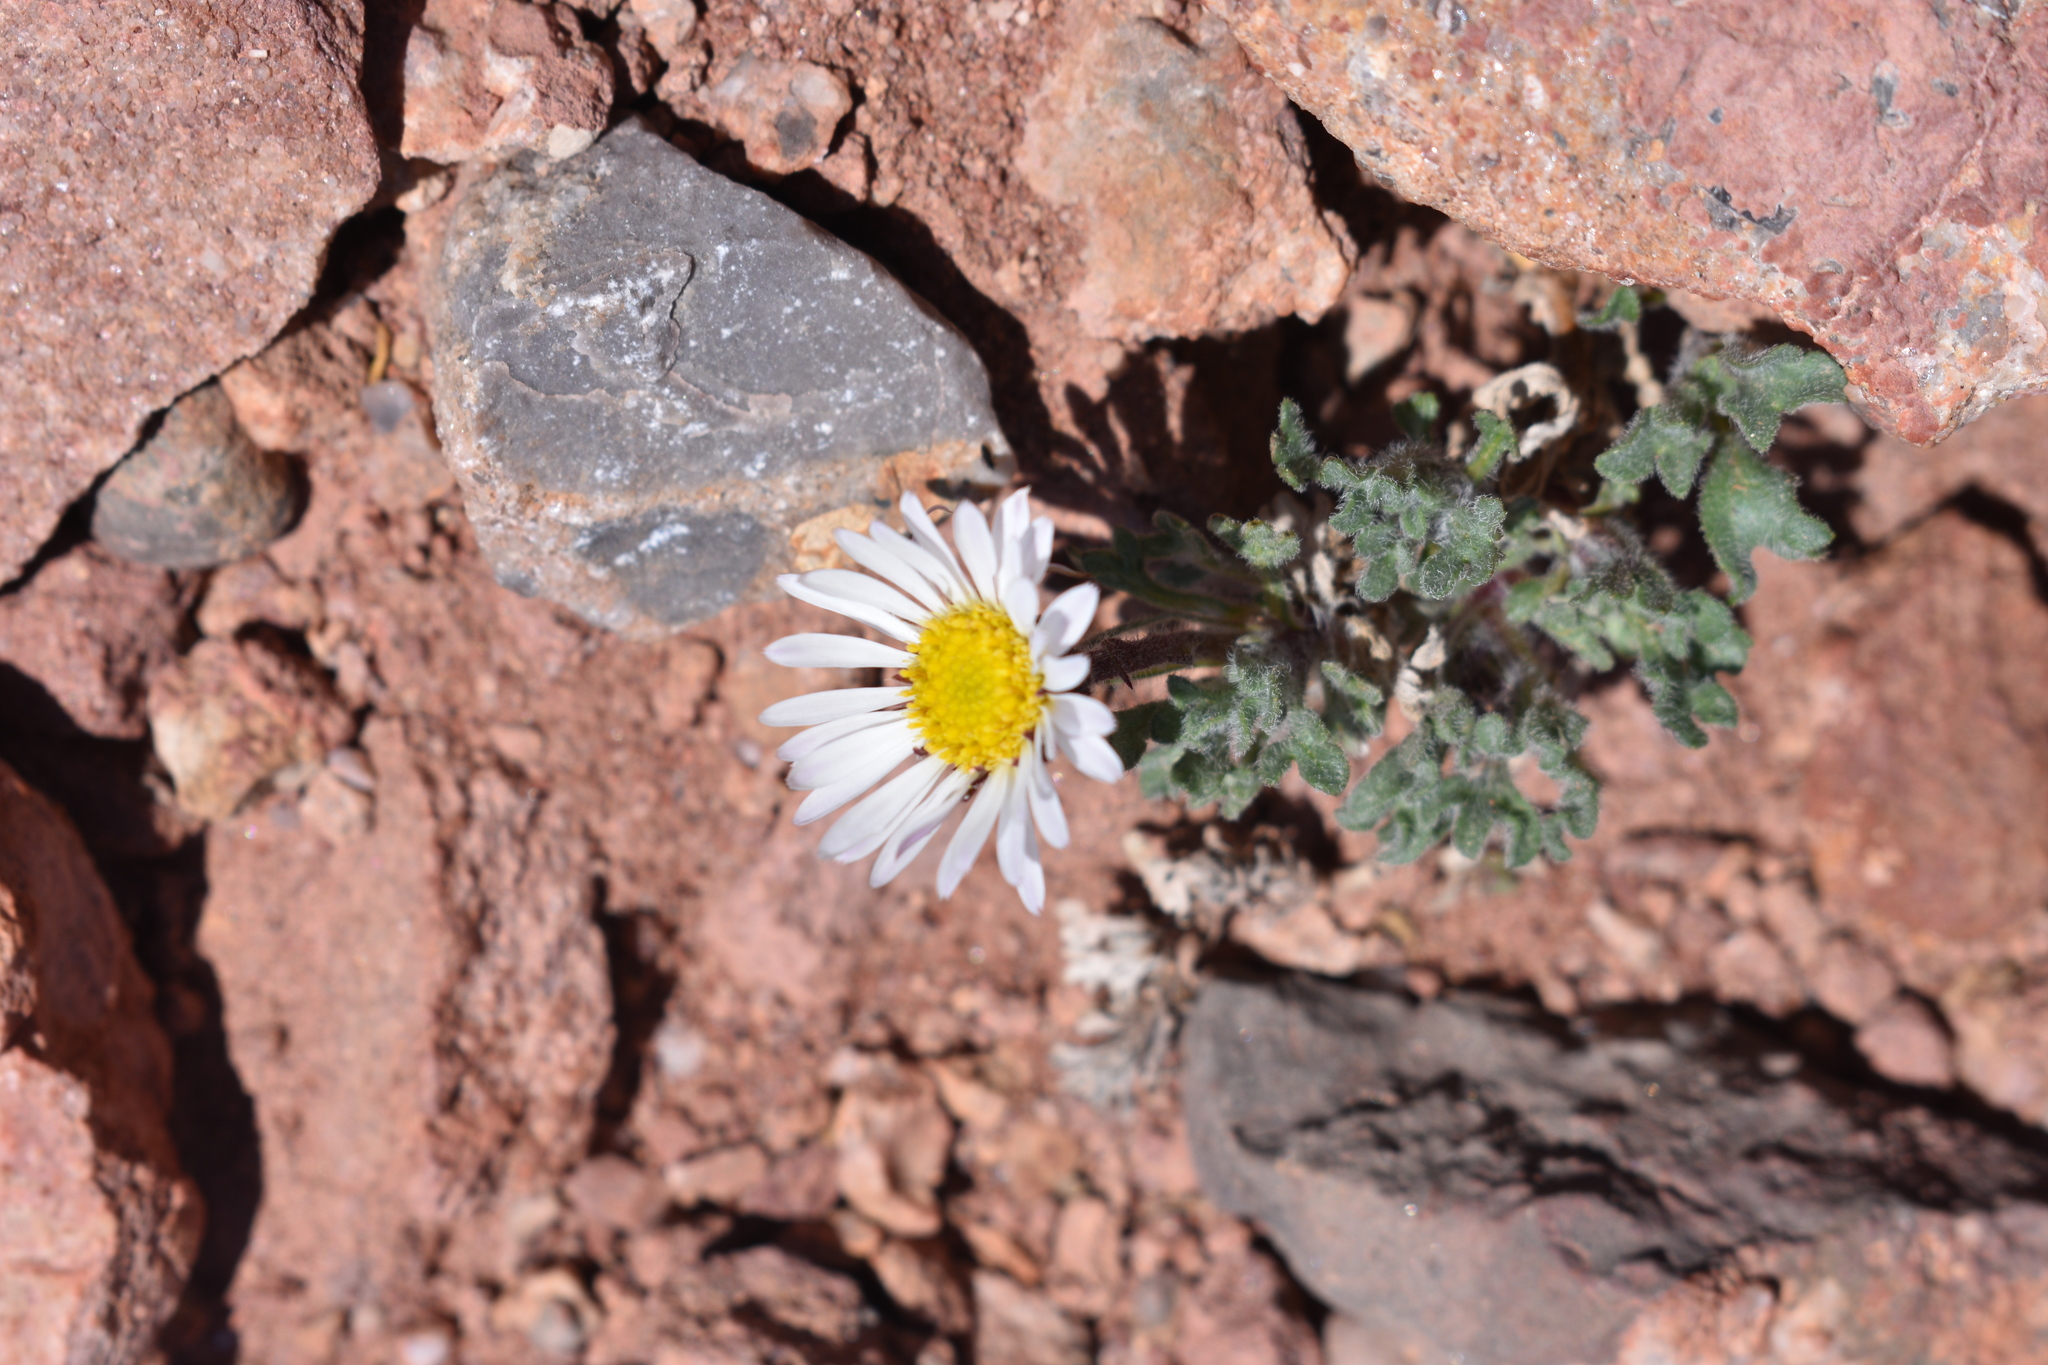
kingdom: Plantae
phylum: Tracheophyta
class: Magnoliopsida
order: Asterales
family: Asteraceae
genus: Erigeron
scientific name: Erigeron compositus
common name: Dwarf mountain fleabane
